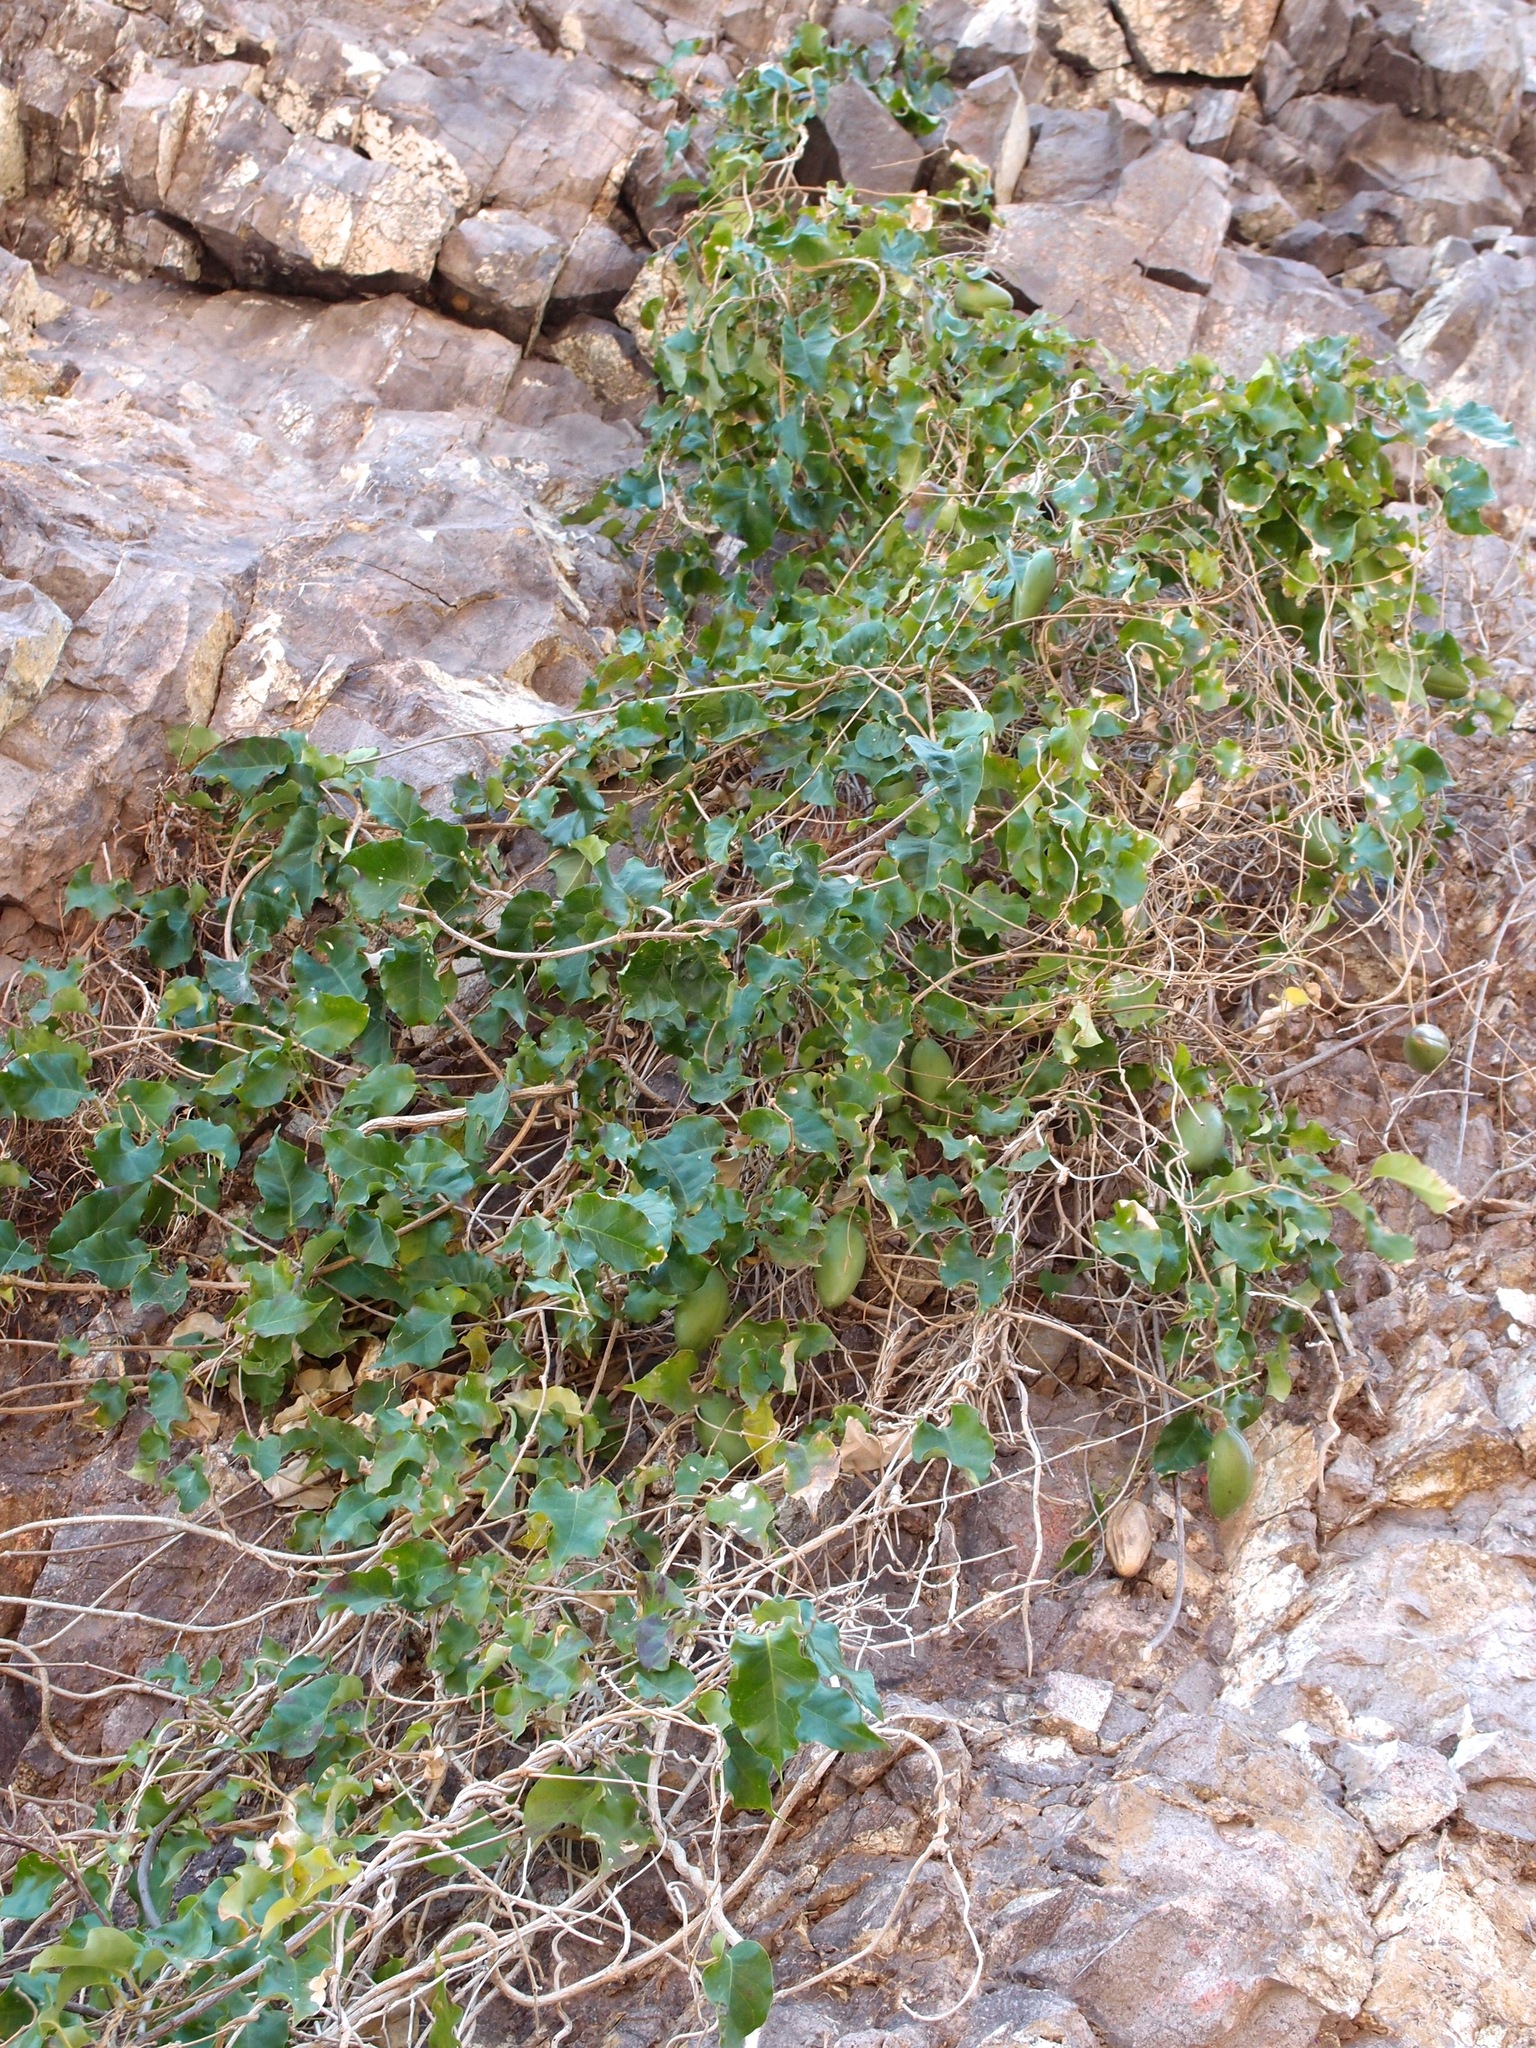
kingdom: Plantae
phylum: Tracheophyta
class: Magnoliopsida
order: Gentianales
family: Apocynaceae
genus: Ruehssia
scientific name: Ruehssia edulis
